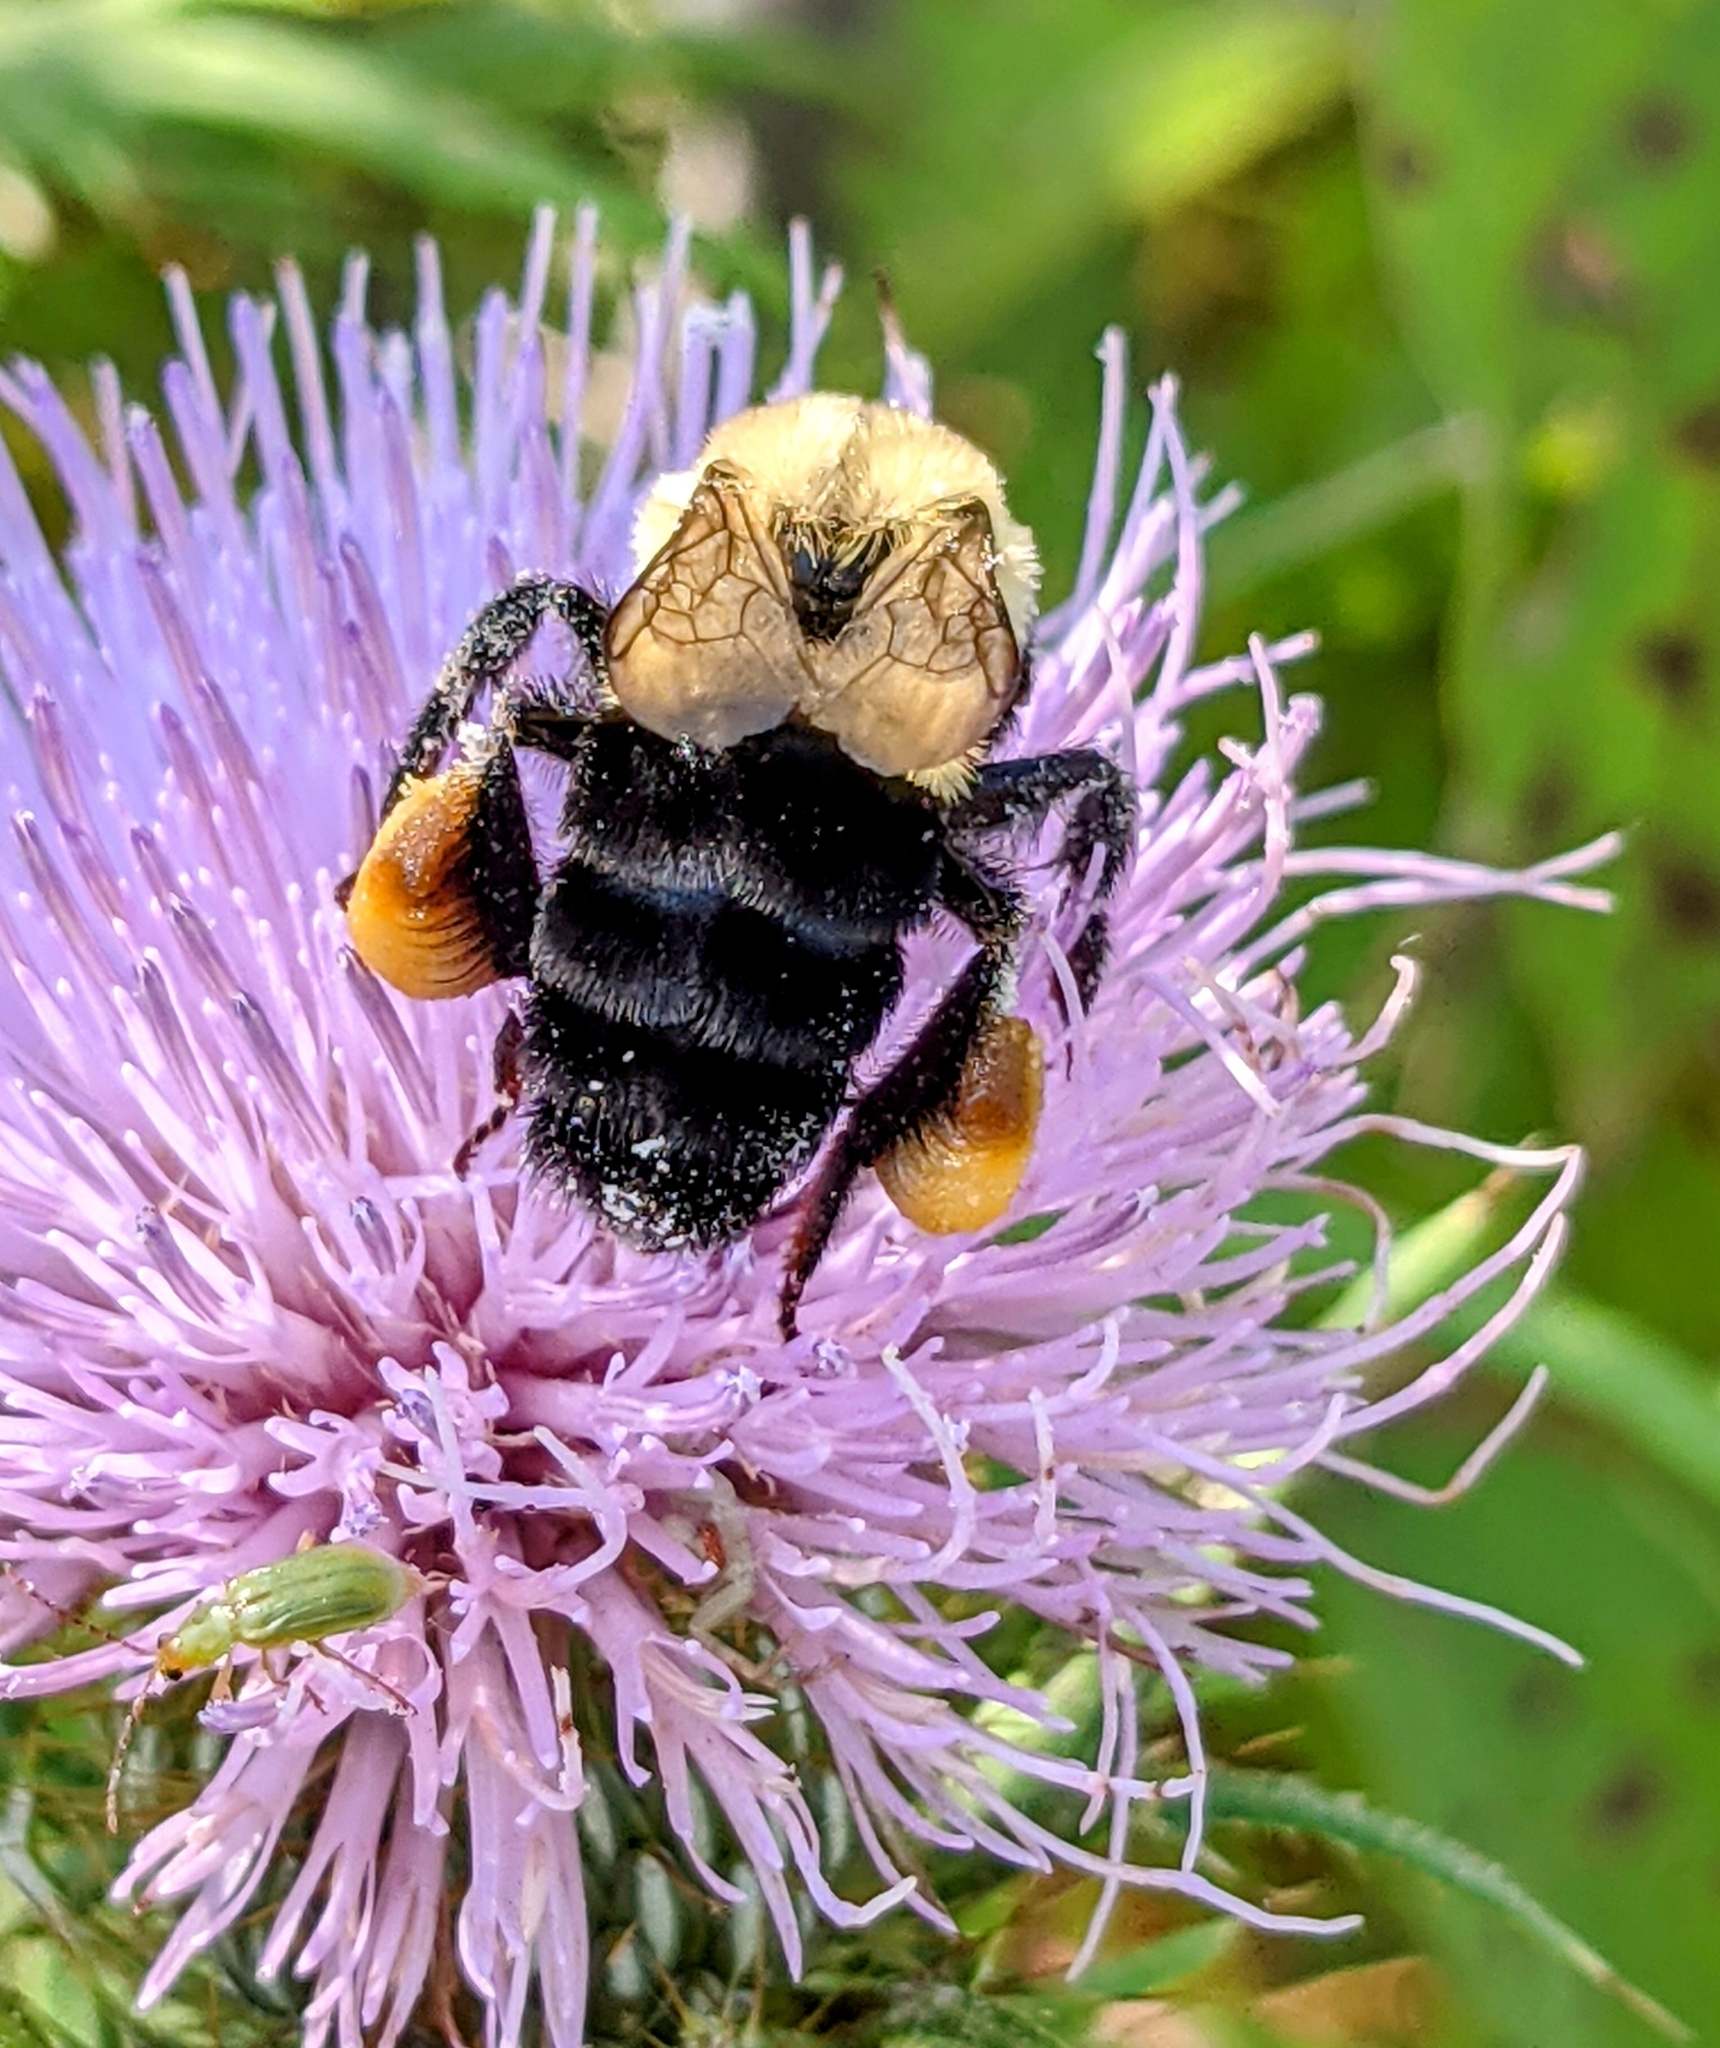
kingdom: Animalia
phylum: Arthropoda
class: Insecta
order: Hymenoptera
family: Apidae
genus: Bombus
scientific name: Bombus impatiens
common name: Common eastern bumble bee
